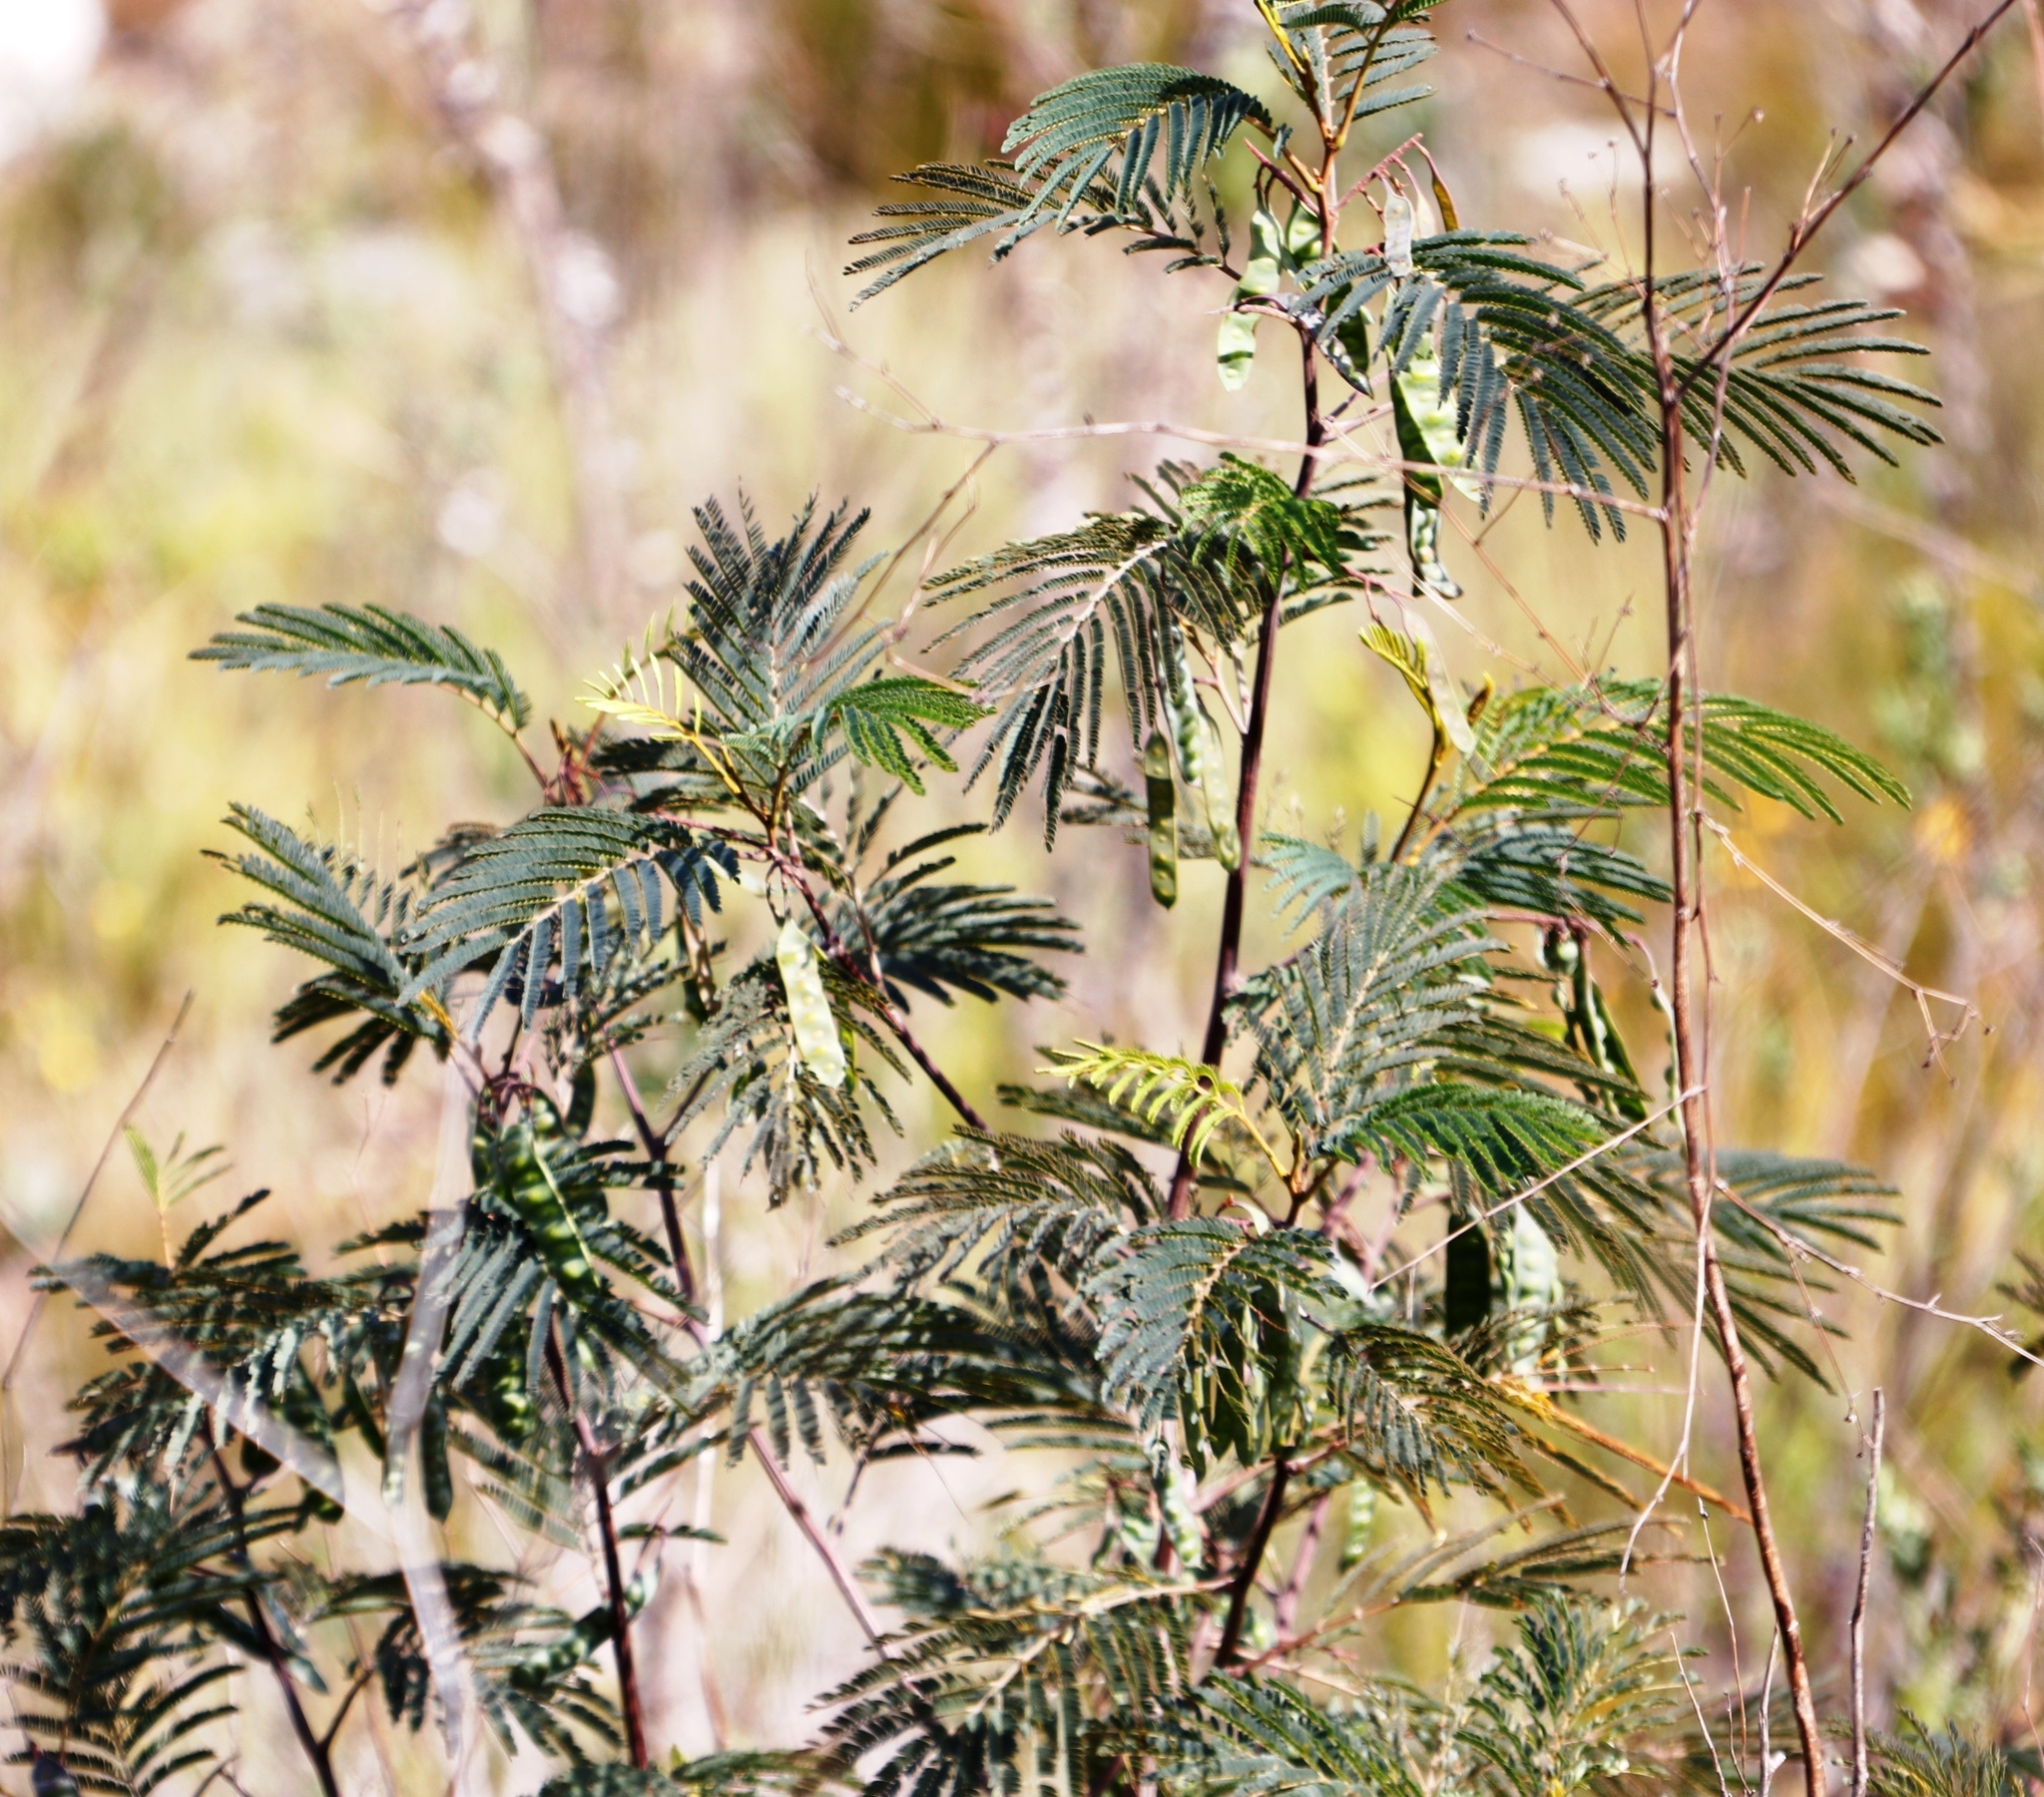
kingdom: Plantae
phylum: Tracheophyta
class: Magnoliopsida
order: Fabales
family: Fabaceae
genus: Paraserianthes
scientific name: Paraserianthes lophantha
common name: Plume albizia
